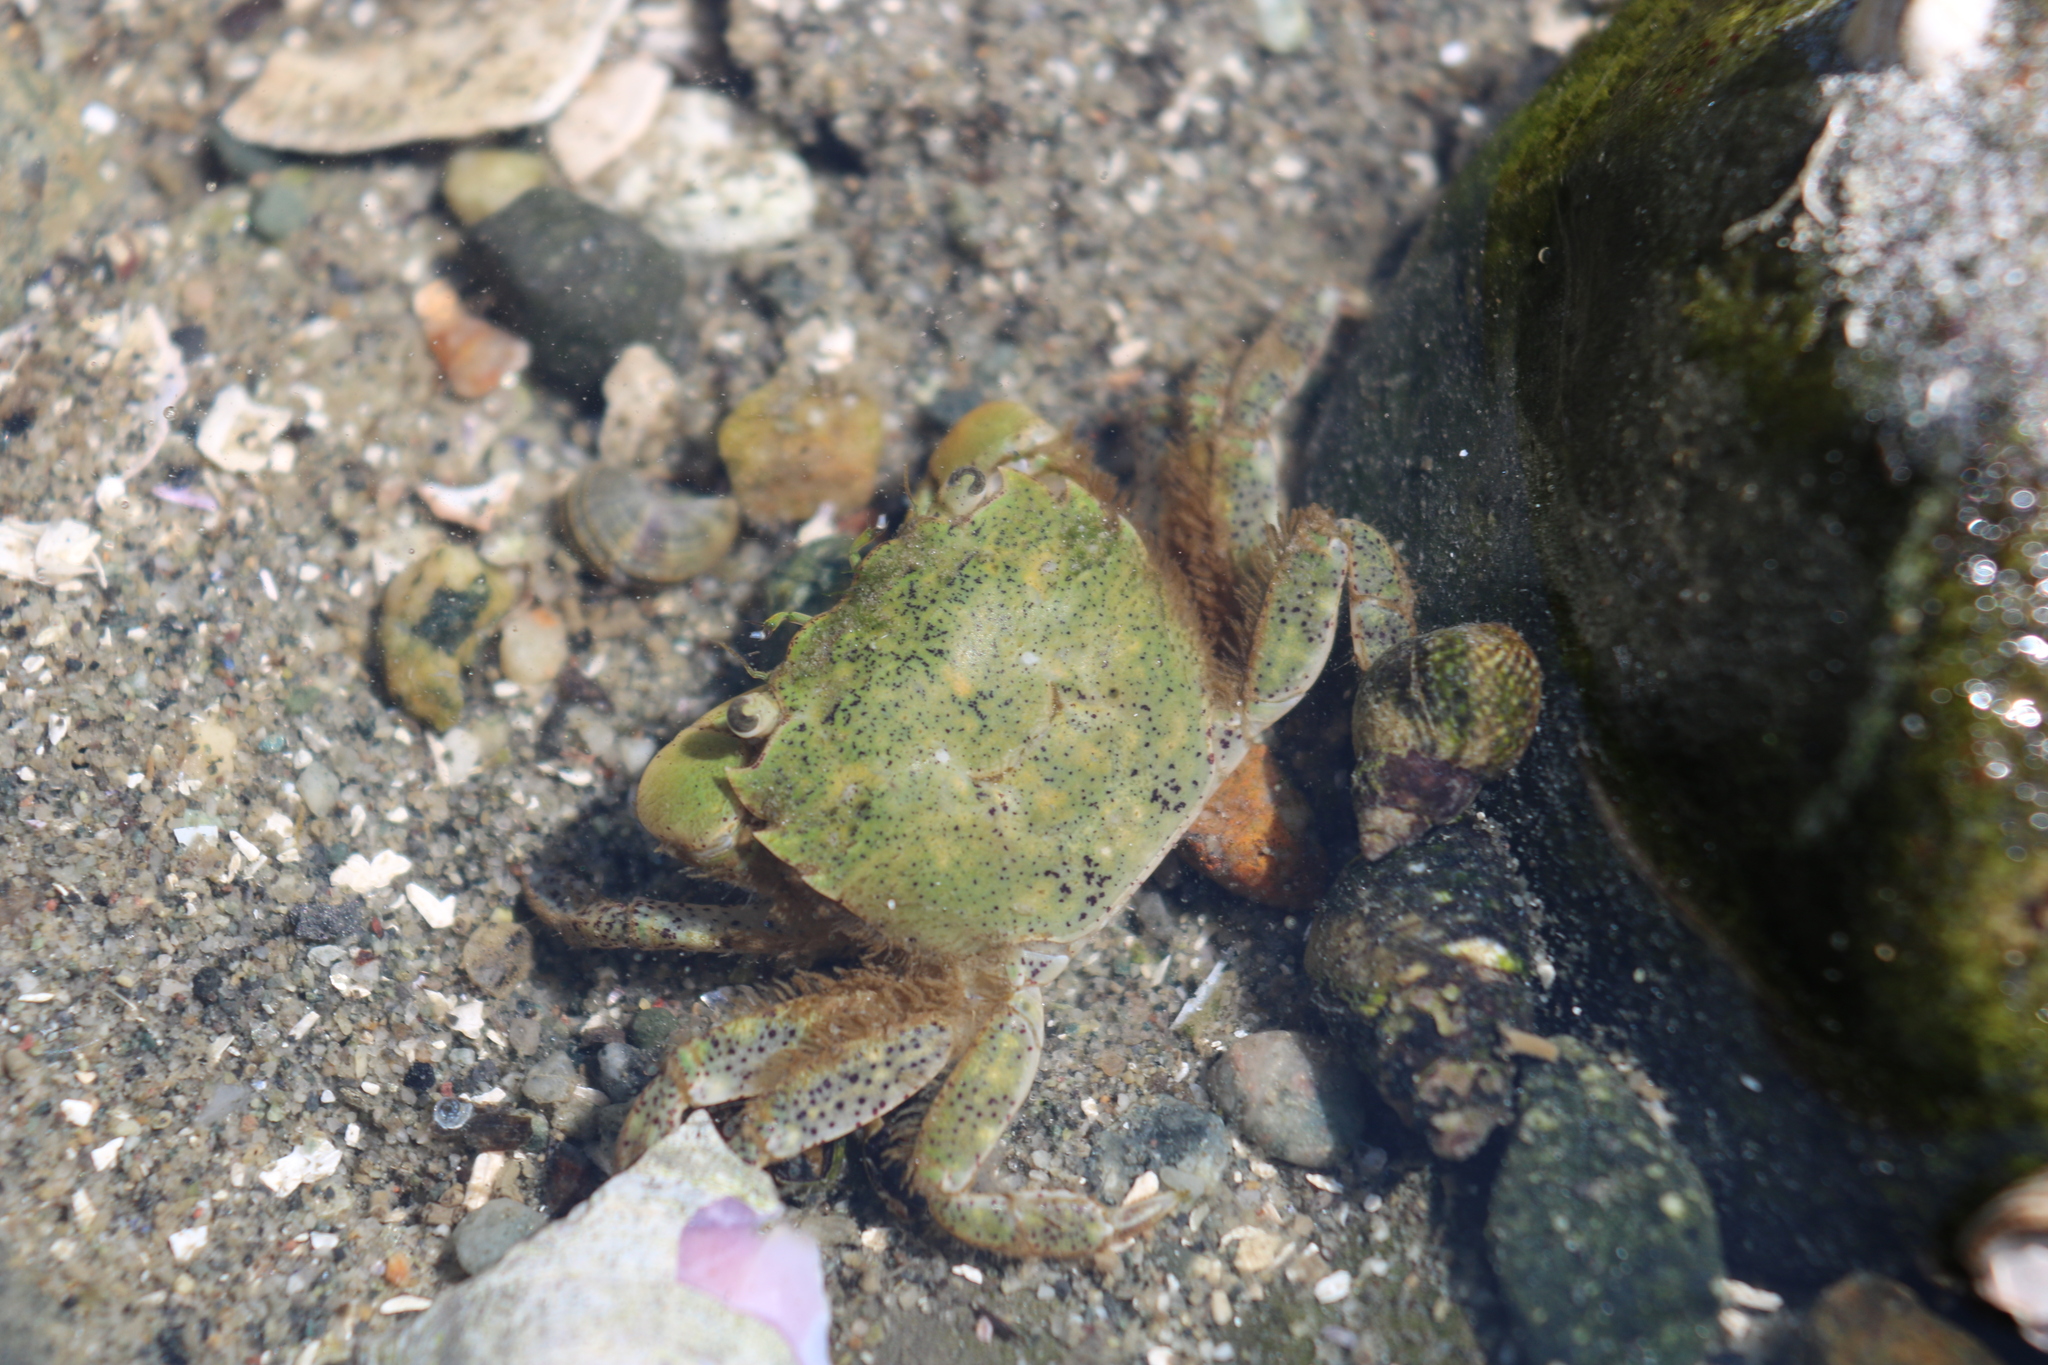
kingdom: Animalia
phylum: Arthropoda
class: Malacostraca
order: Decapoda
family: Varunidae
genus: Hemigrapsus
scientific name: Hemigrapsus oregonensis
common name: Yellow shore crab
